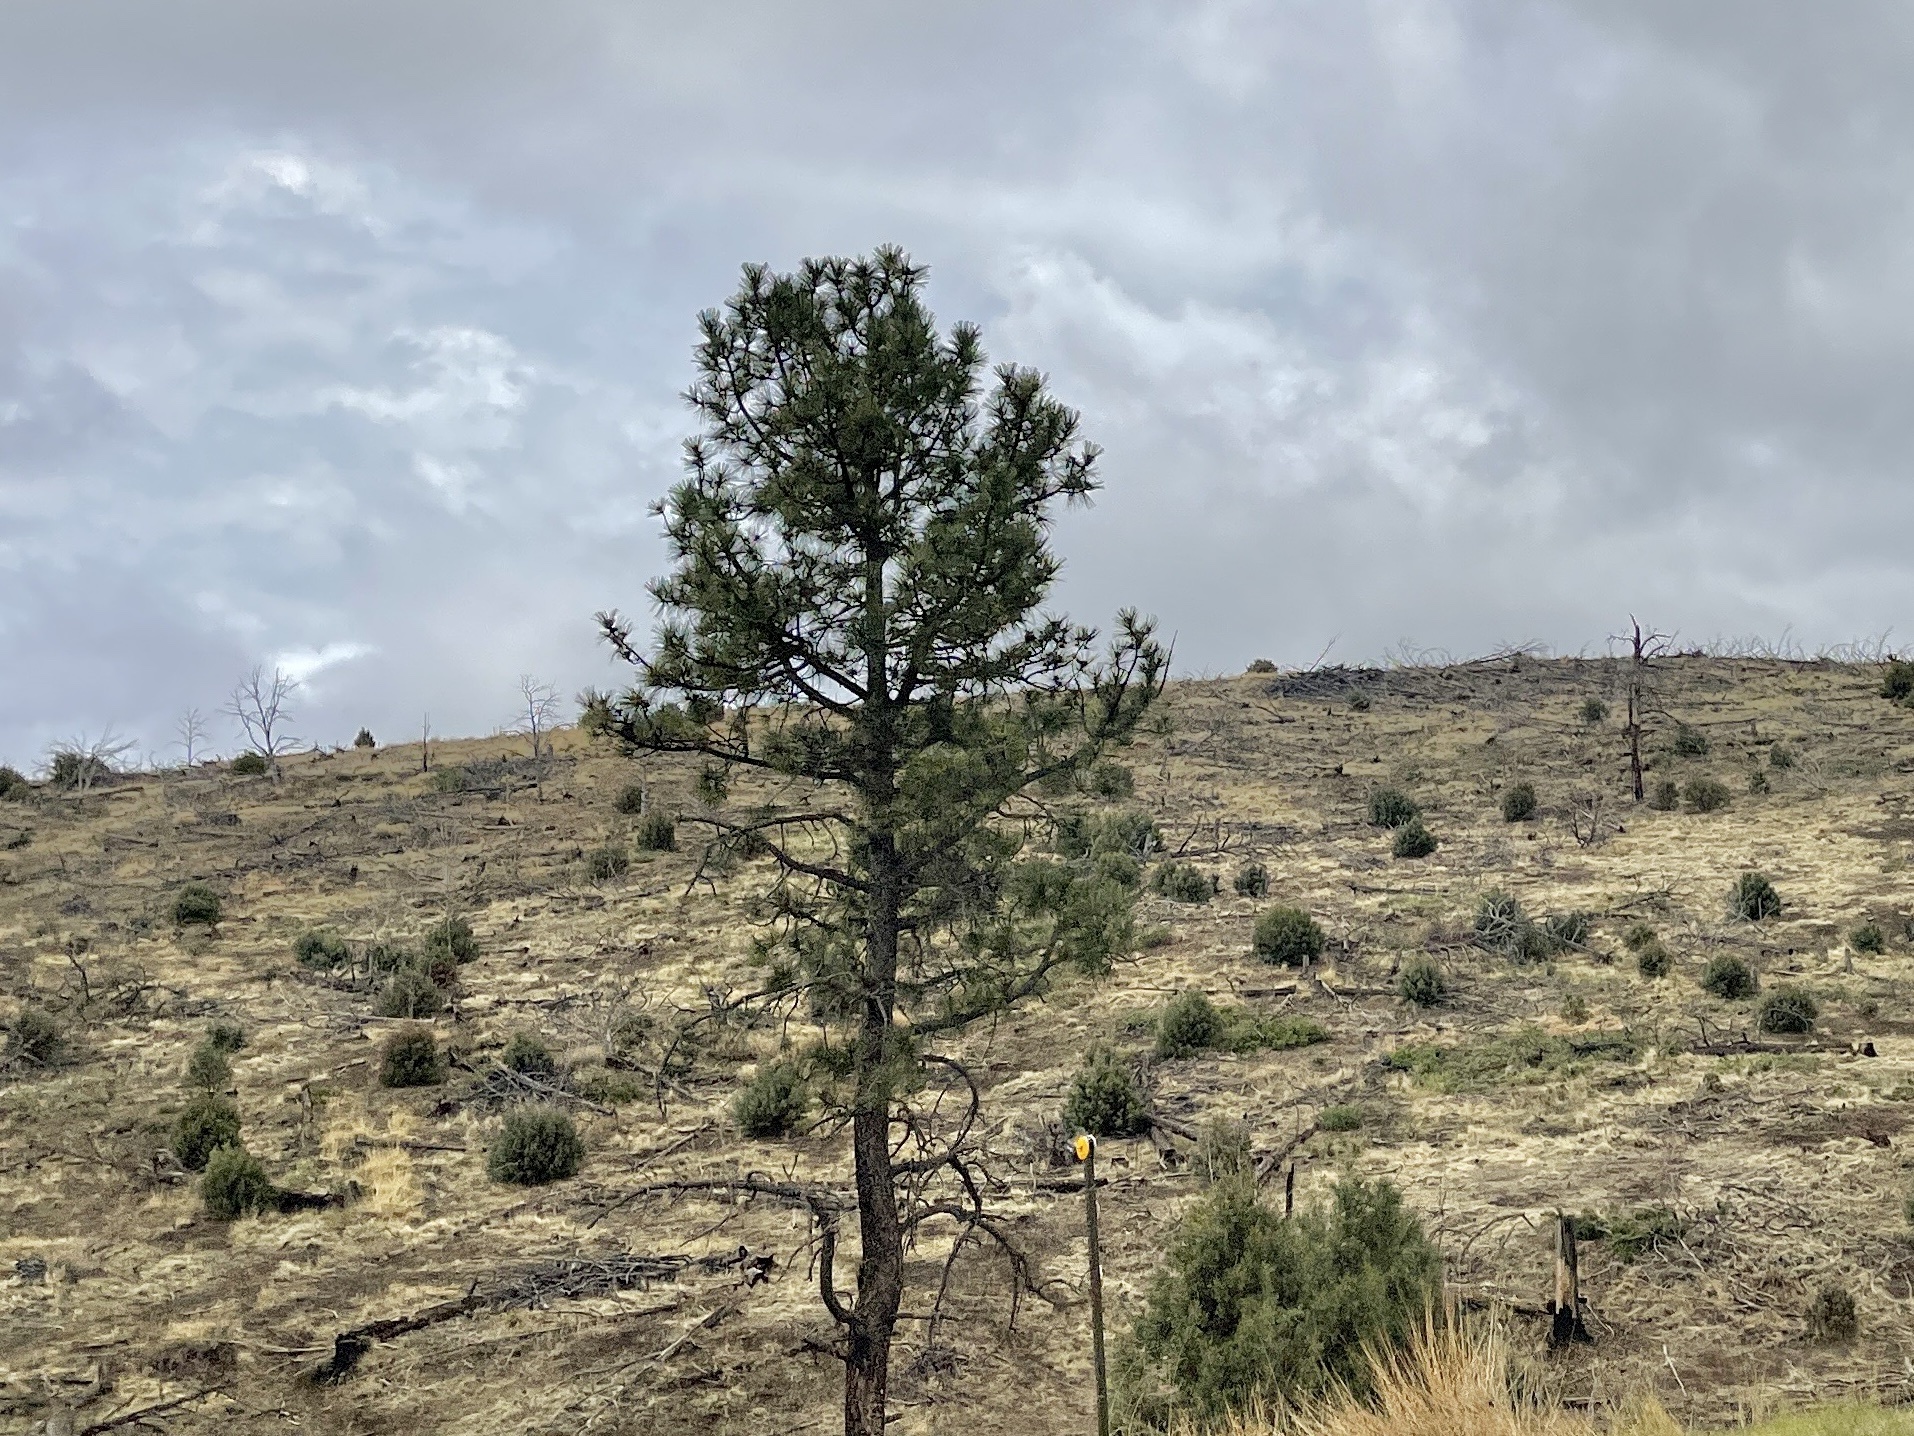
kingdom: Plantae
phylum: Tracheophyta
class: Pinopsida
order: Pinales
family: Pinaceae
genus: Pinus
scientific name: Pinus ponderosa
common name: Western yellow-pine
